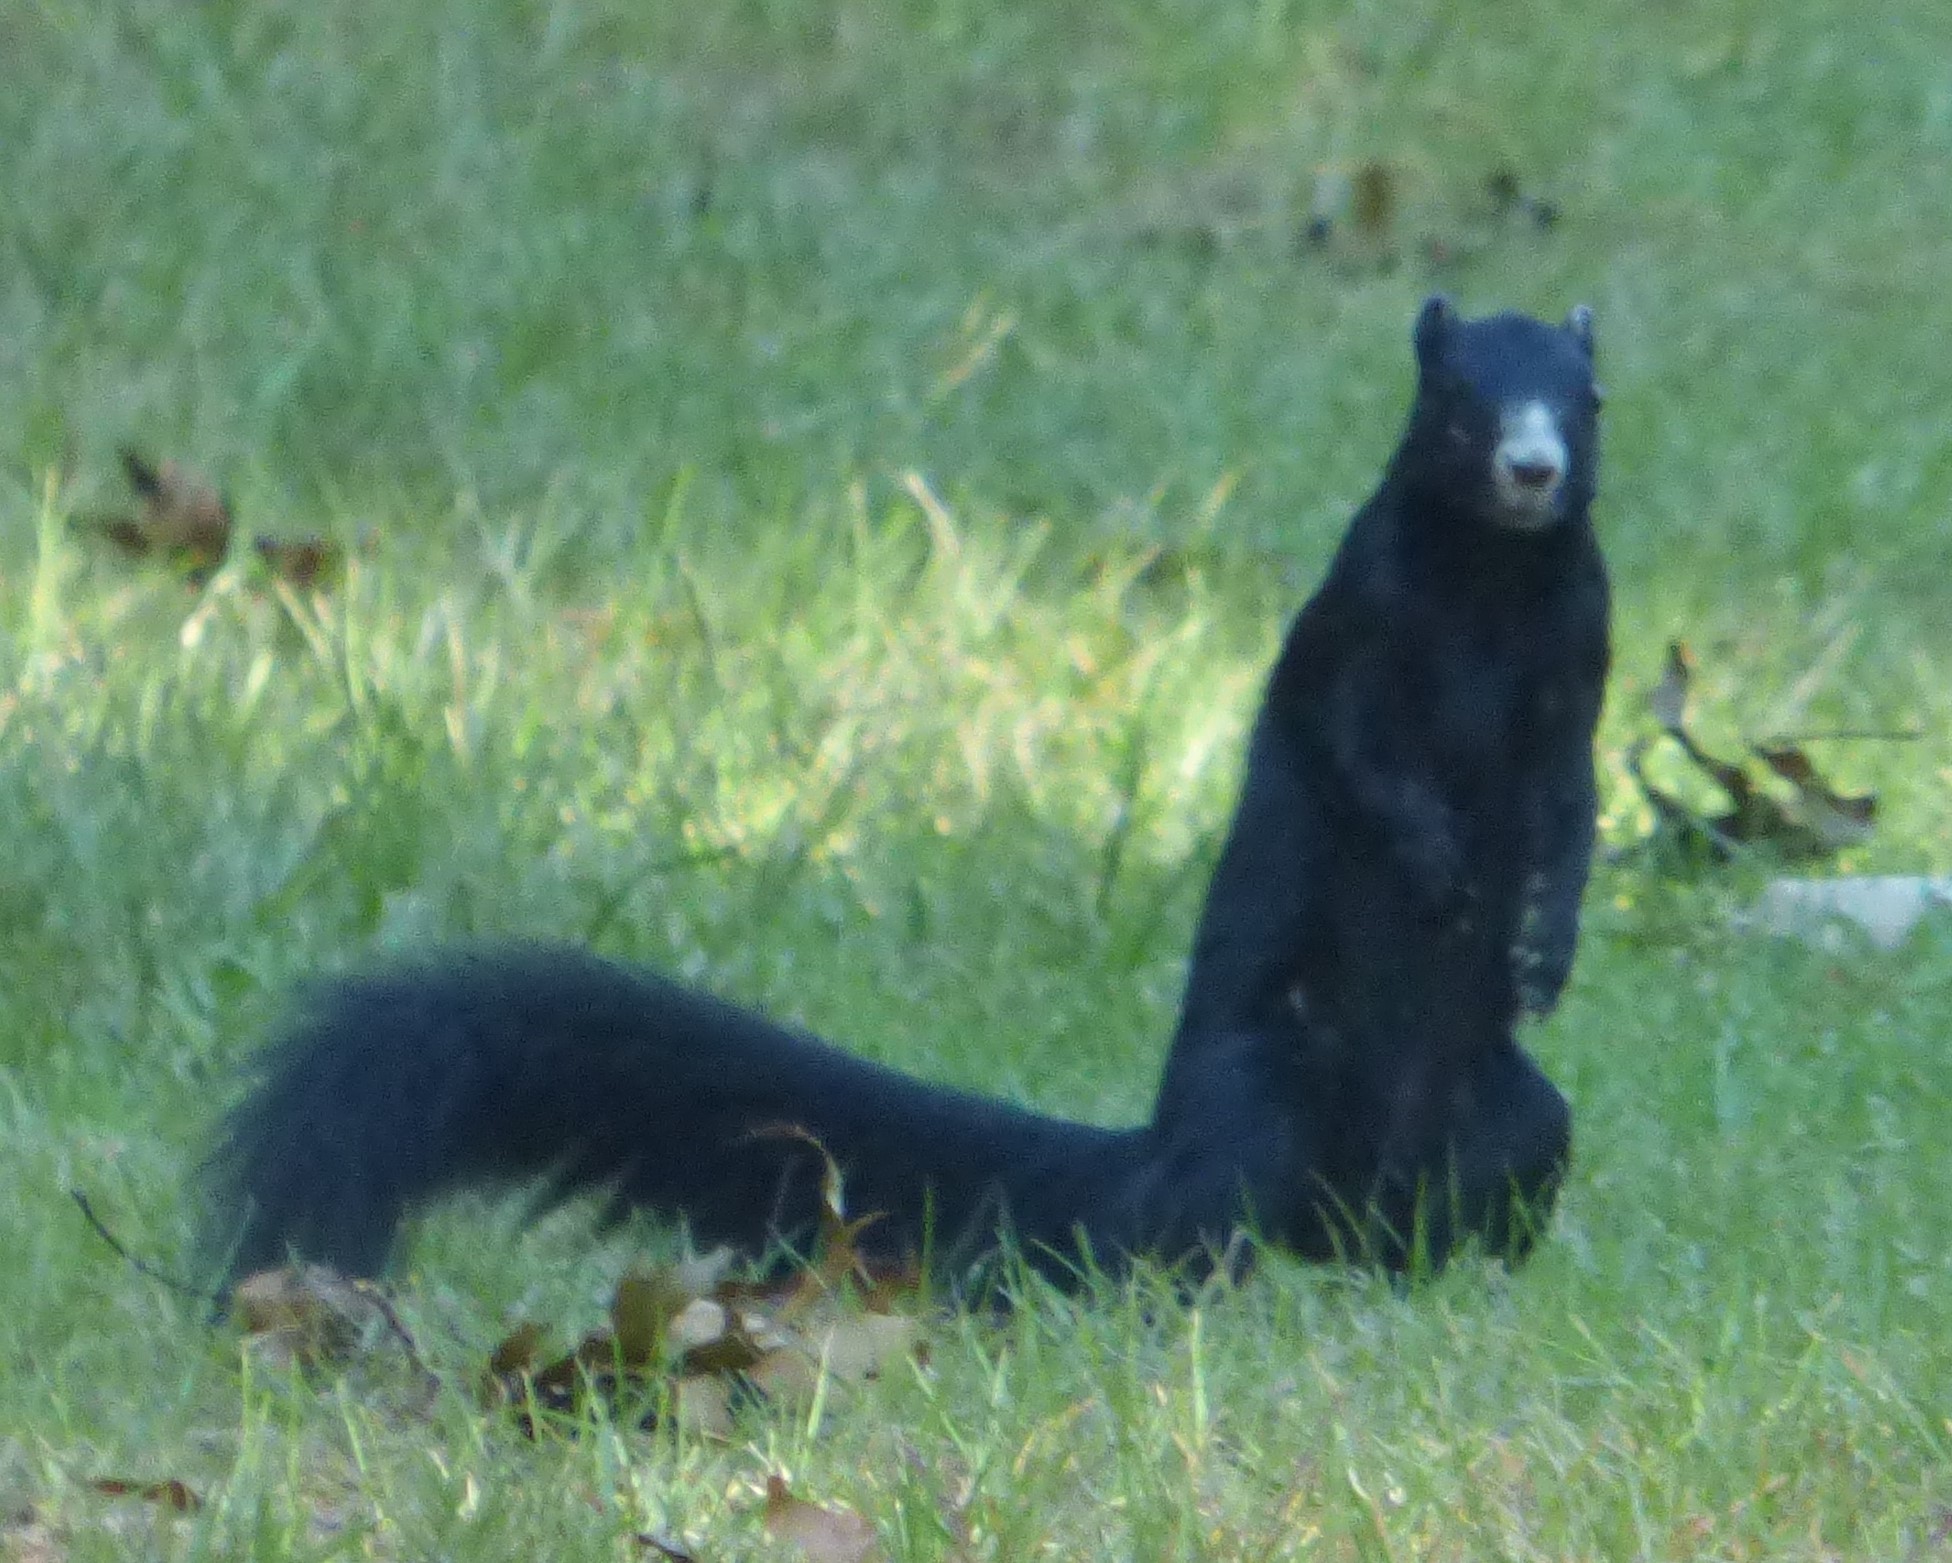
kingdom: Animalia
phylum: Chordata
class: Mammalia
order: Rodentia
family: Sciuridae
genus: Sciurus
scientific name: Sciurus niger
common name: Fox squirrel
